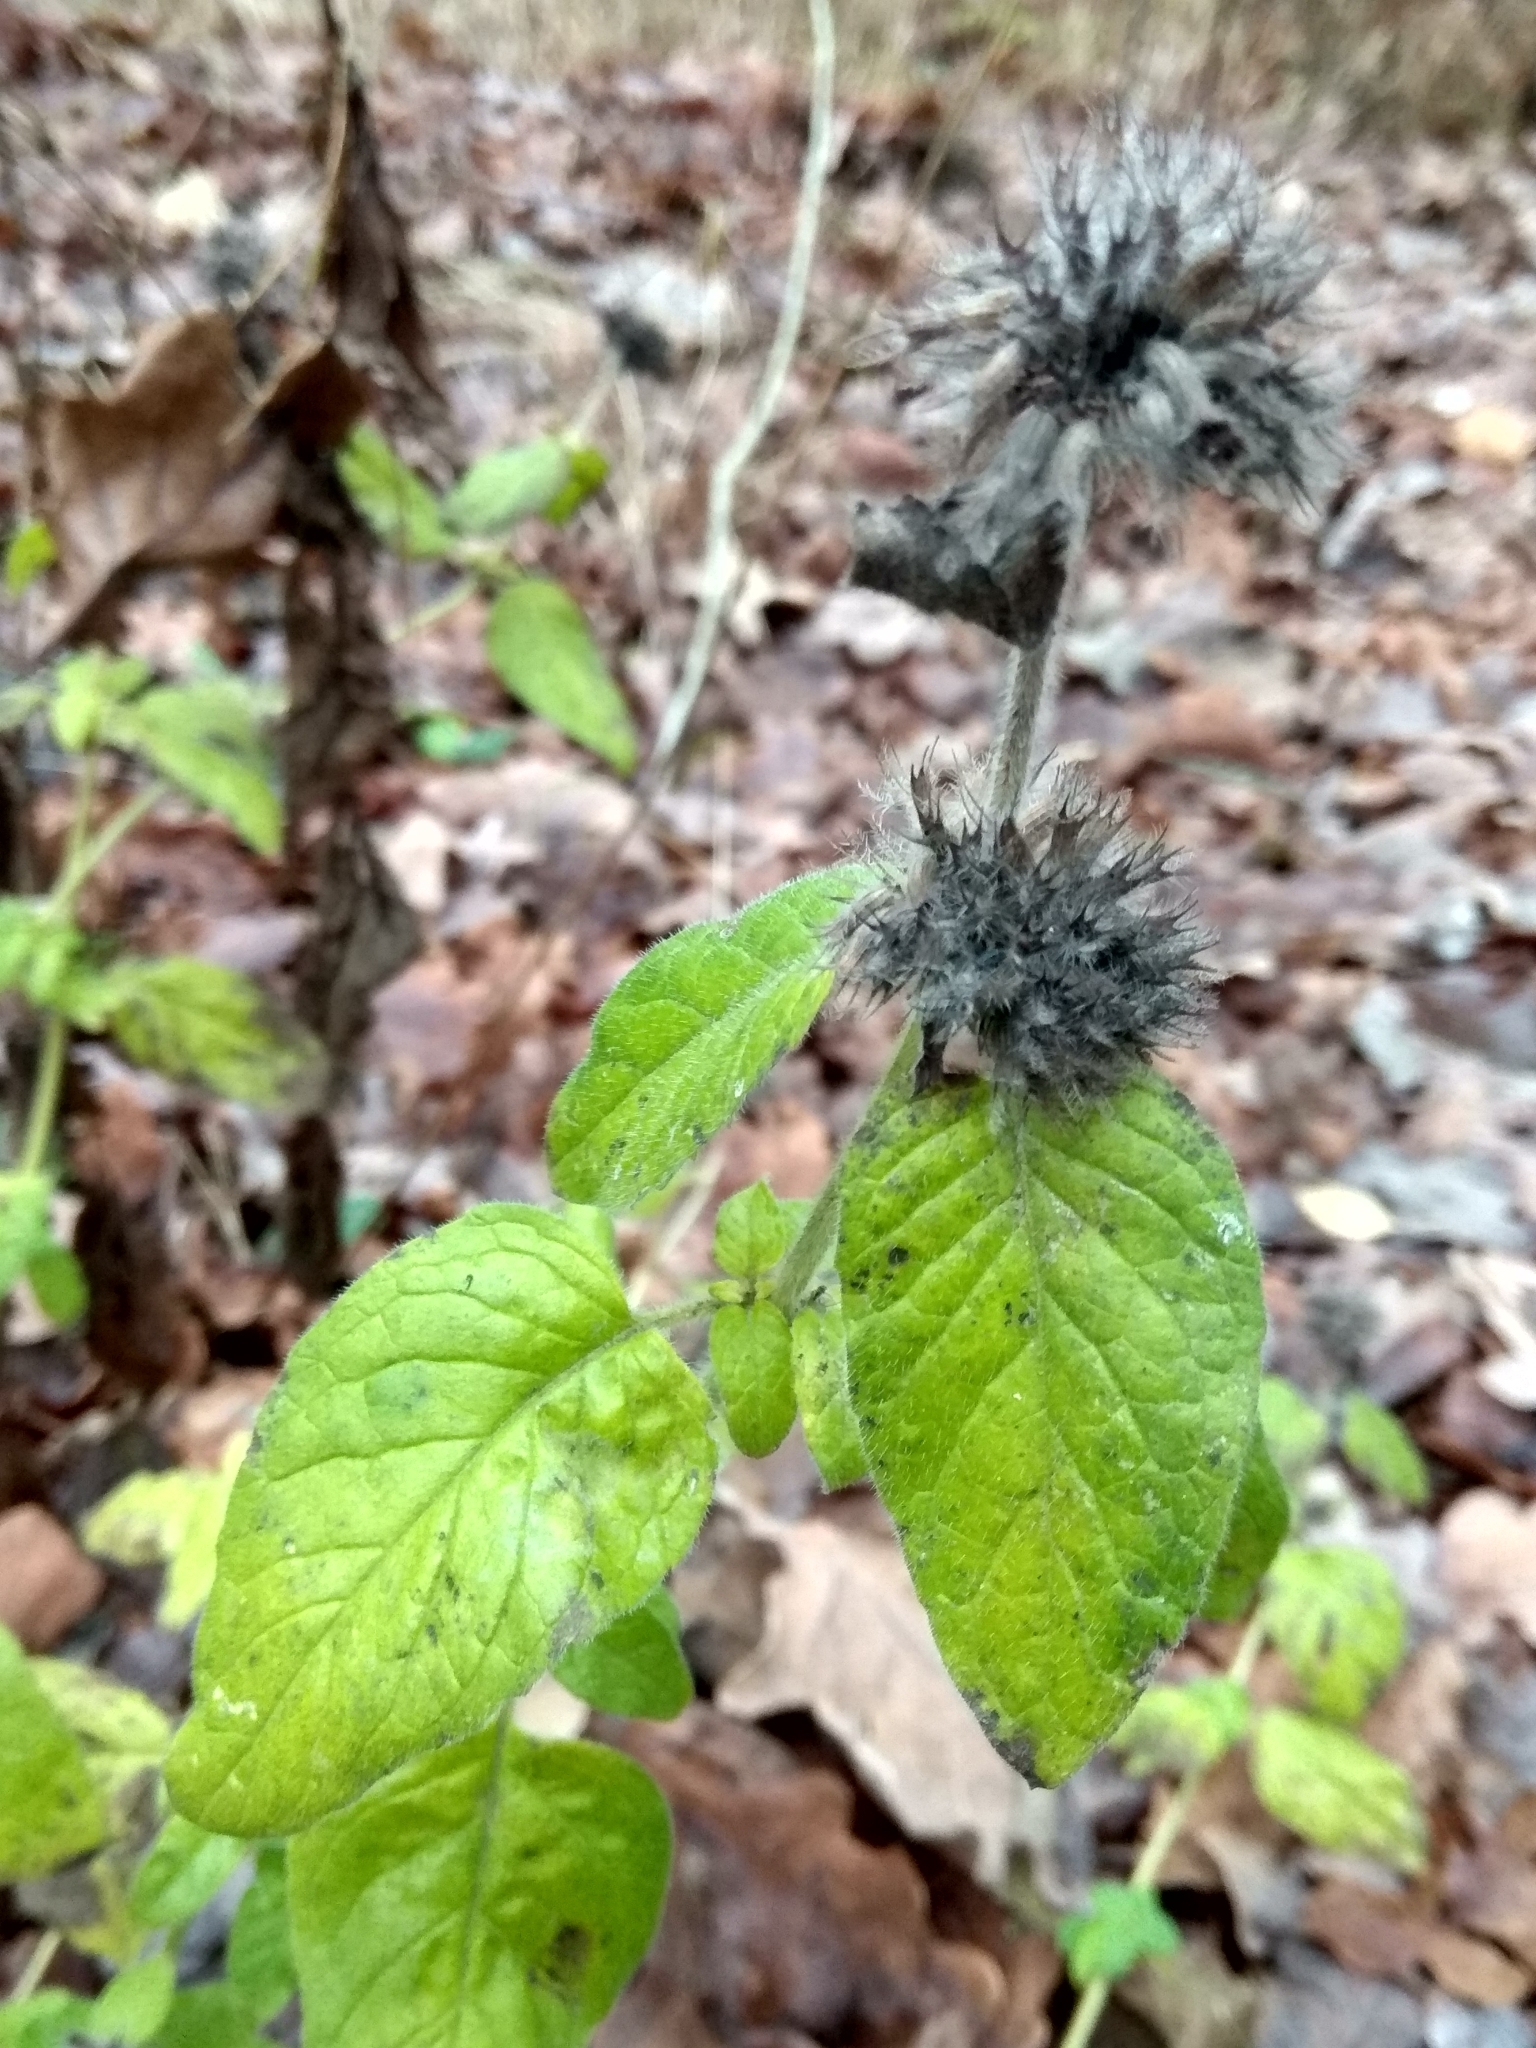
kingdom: Plantae
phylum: Tracheophyta
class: Magnoliopsida
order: Lamiales
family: Lamiaceae
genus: Clinopodium
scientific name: Clinopodium vulgare
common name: Wild basil
